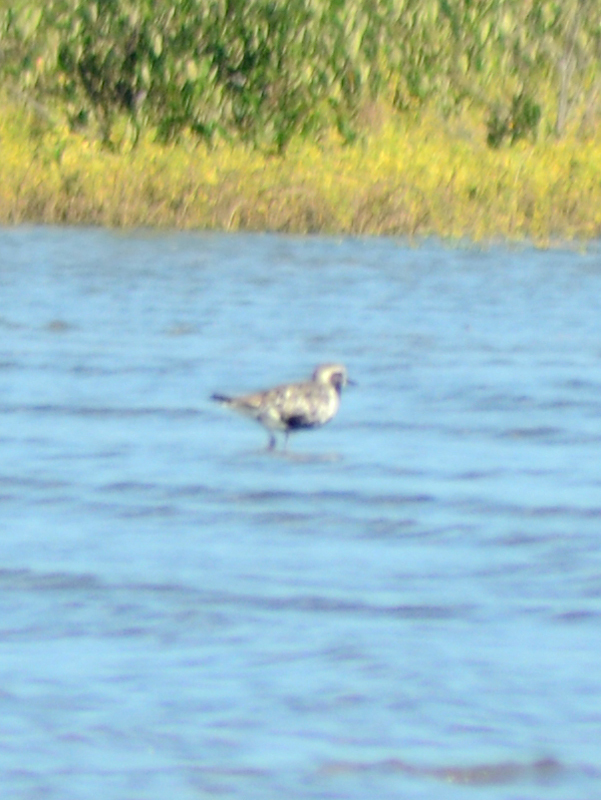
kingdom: Animalia
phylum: Chordata
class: Aves
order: Charadriiformes
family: Charadriidae
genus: Pluvialis
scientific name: Pluvialis squatarola
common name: Grey plover
